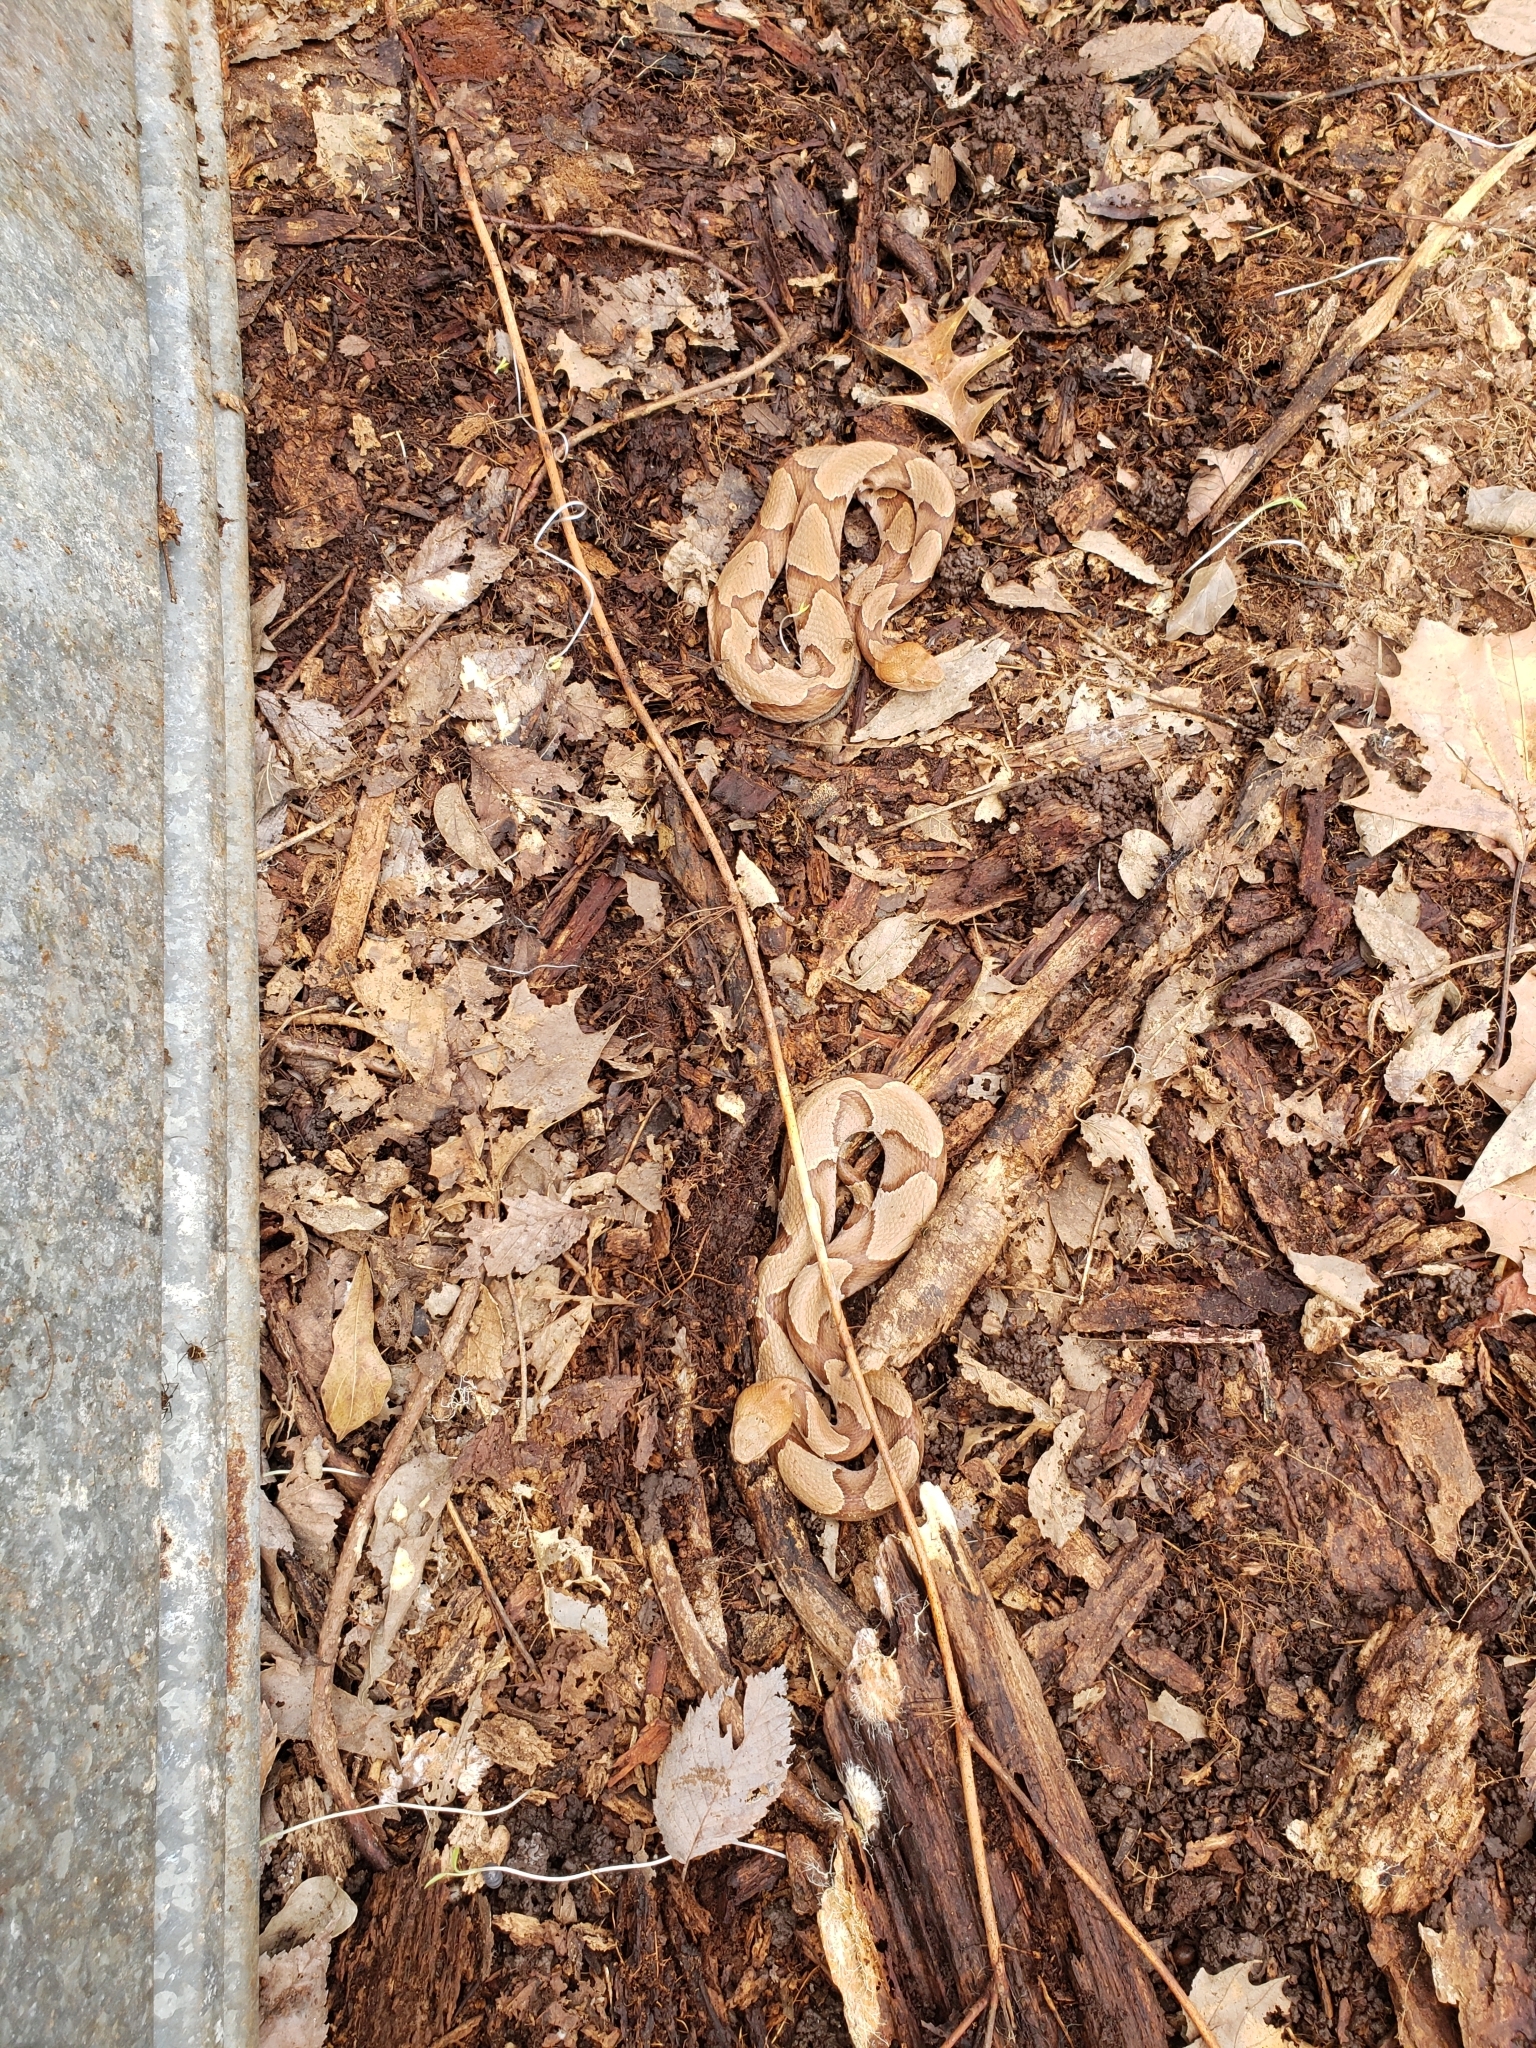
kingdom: Animalia
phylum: Chordata
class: Squamata
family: Viperidae
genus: Agkistrodon
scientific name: Agkistrodon contortrix
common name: Northern copperhead
